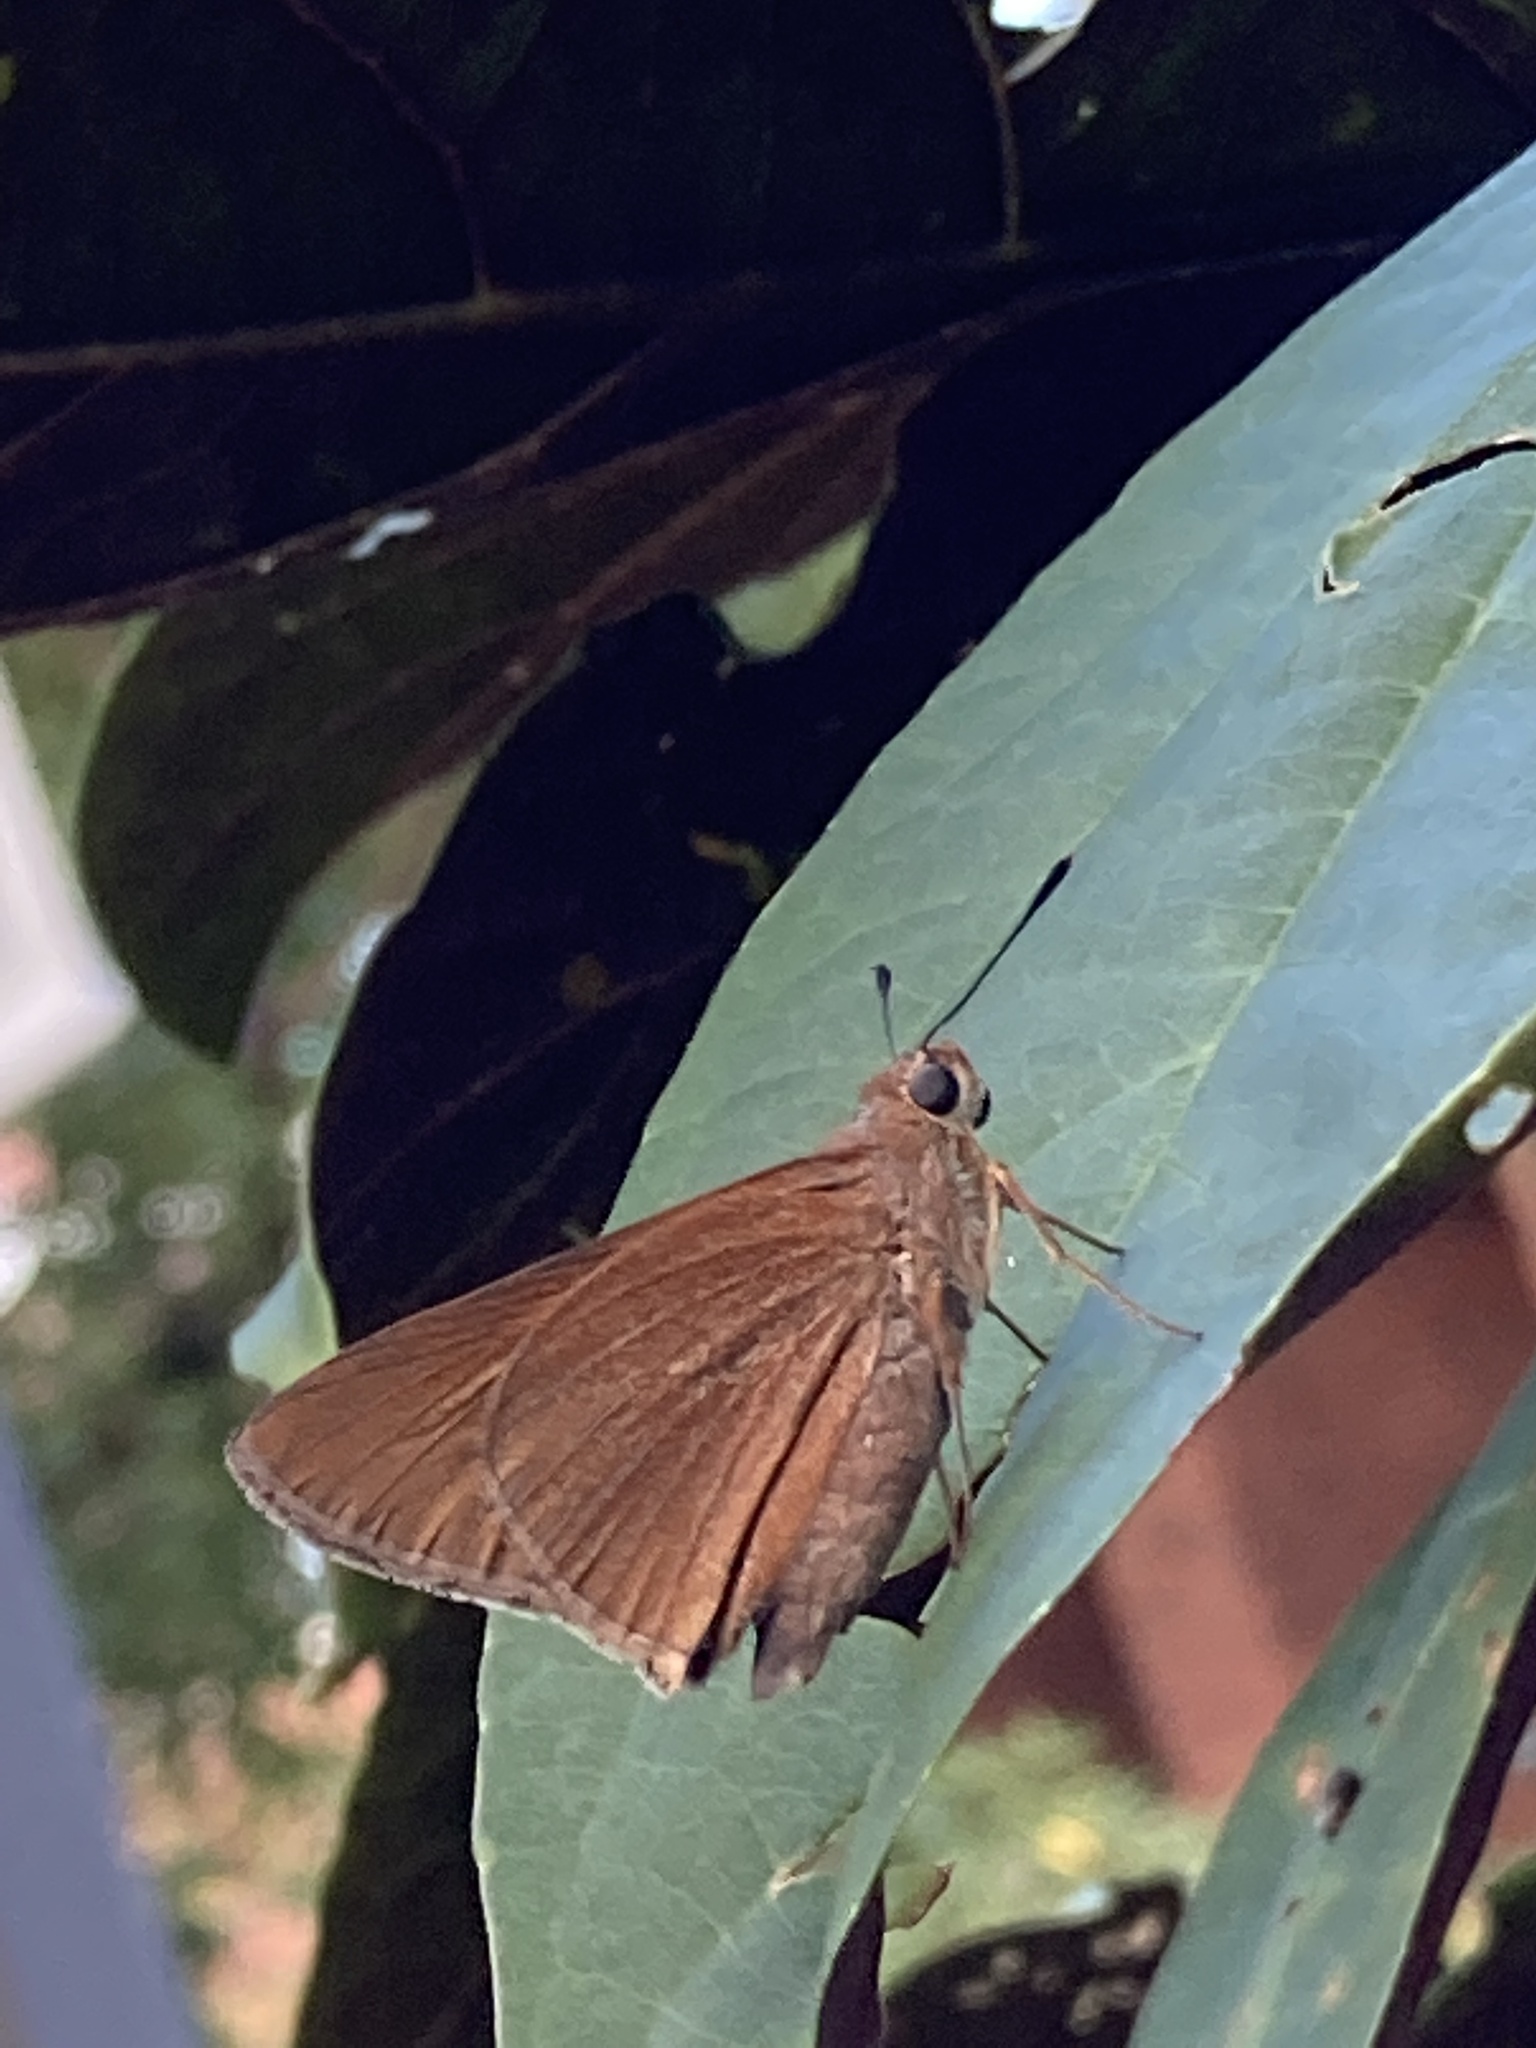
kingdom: Animalia
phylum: Arthropoda
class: Insecta
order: Lepidoptera
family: Hesperiidae
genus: Asbolis
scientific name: Asbolis capucinus
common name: Monk skipper
